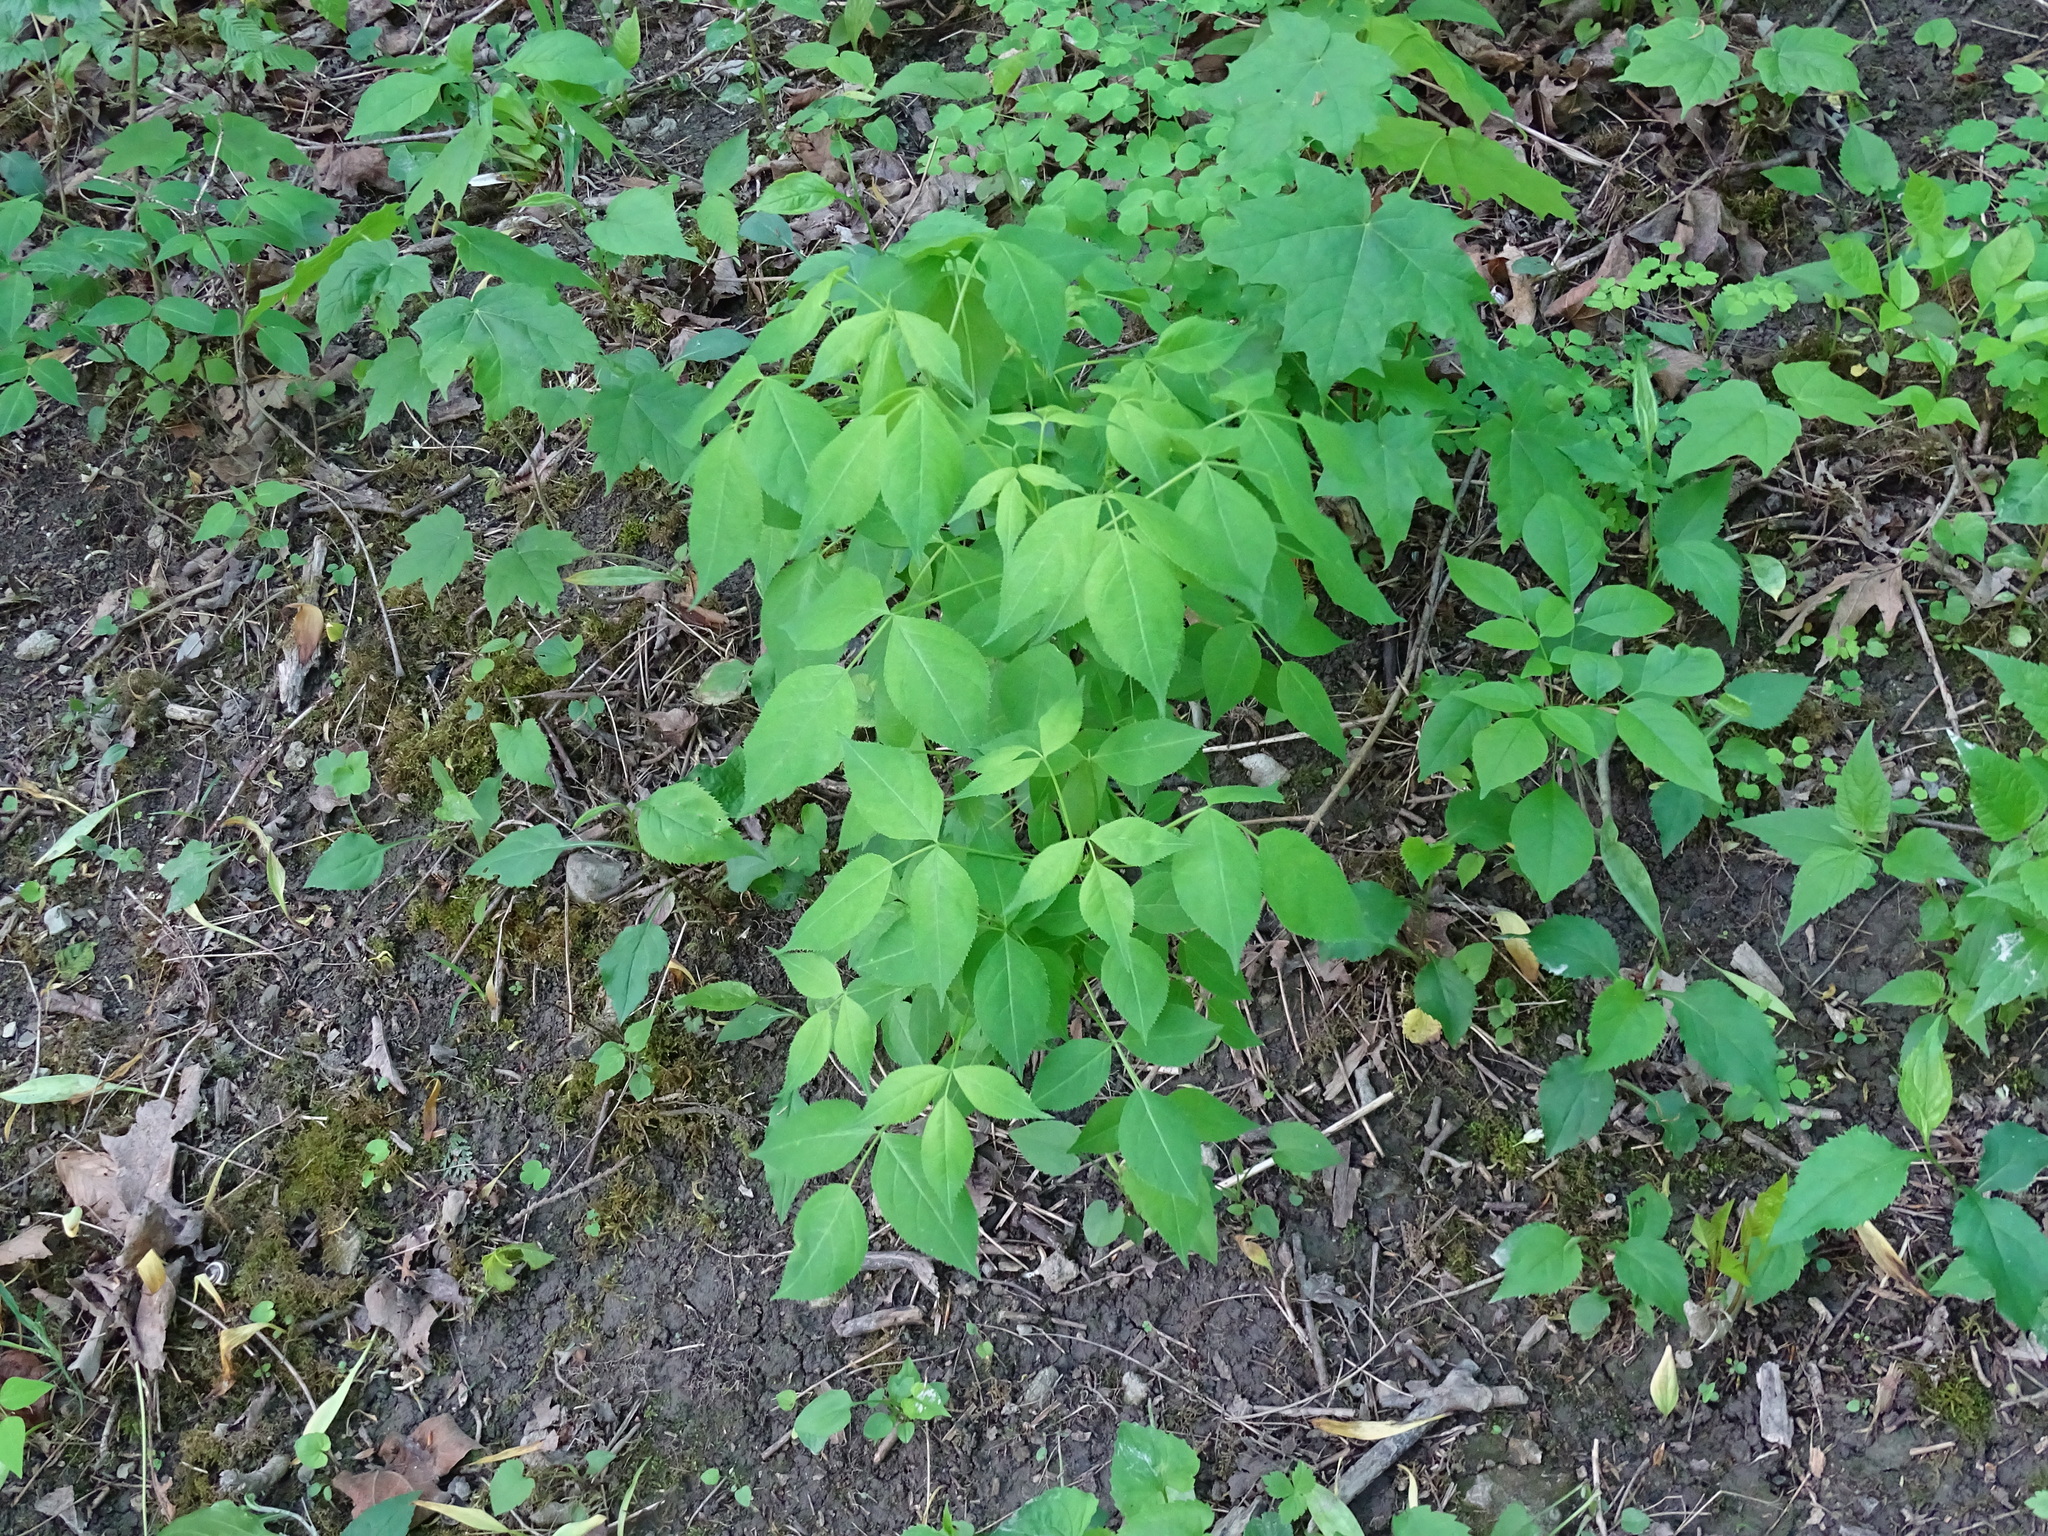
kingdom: Plantae
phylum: Tracheophyta
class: Magnoliopsida
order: Crossosomatales
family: Staphyleaceae
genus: Staphylea
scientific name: Staphylea trifolia
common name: American bladdernut
